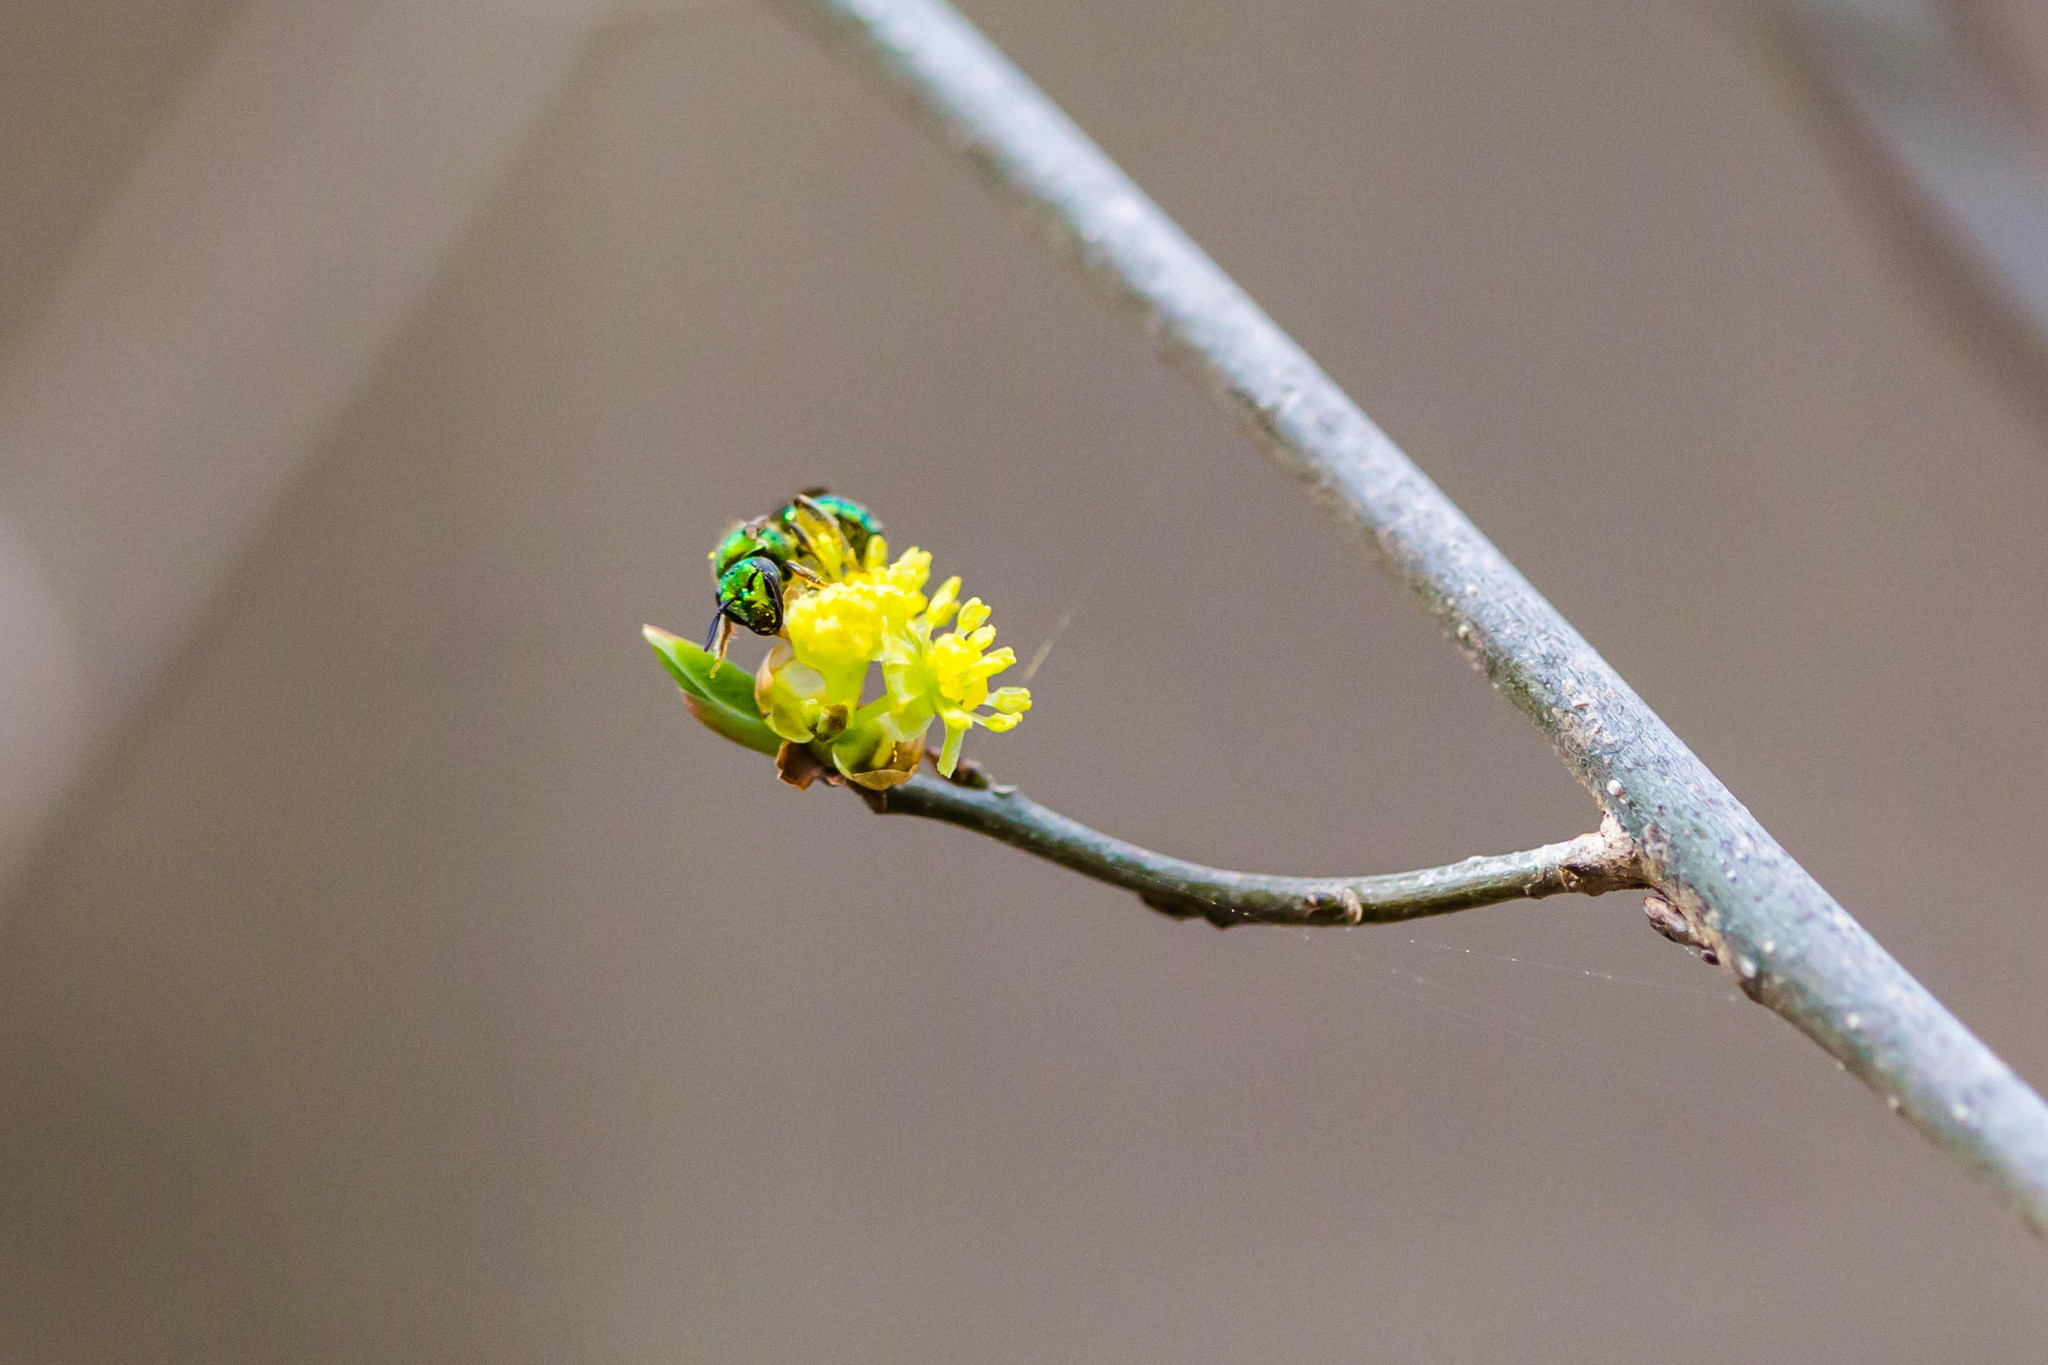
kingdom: Animalia
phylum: Arthropoda
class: Insecta
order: Hymenoptera
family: Halictidae
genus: Augochlora
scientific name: Augochlora pura
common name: Pure green sweat bee
